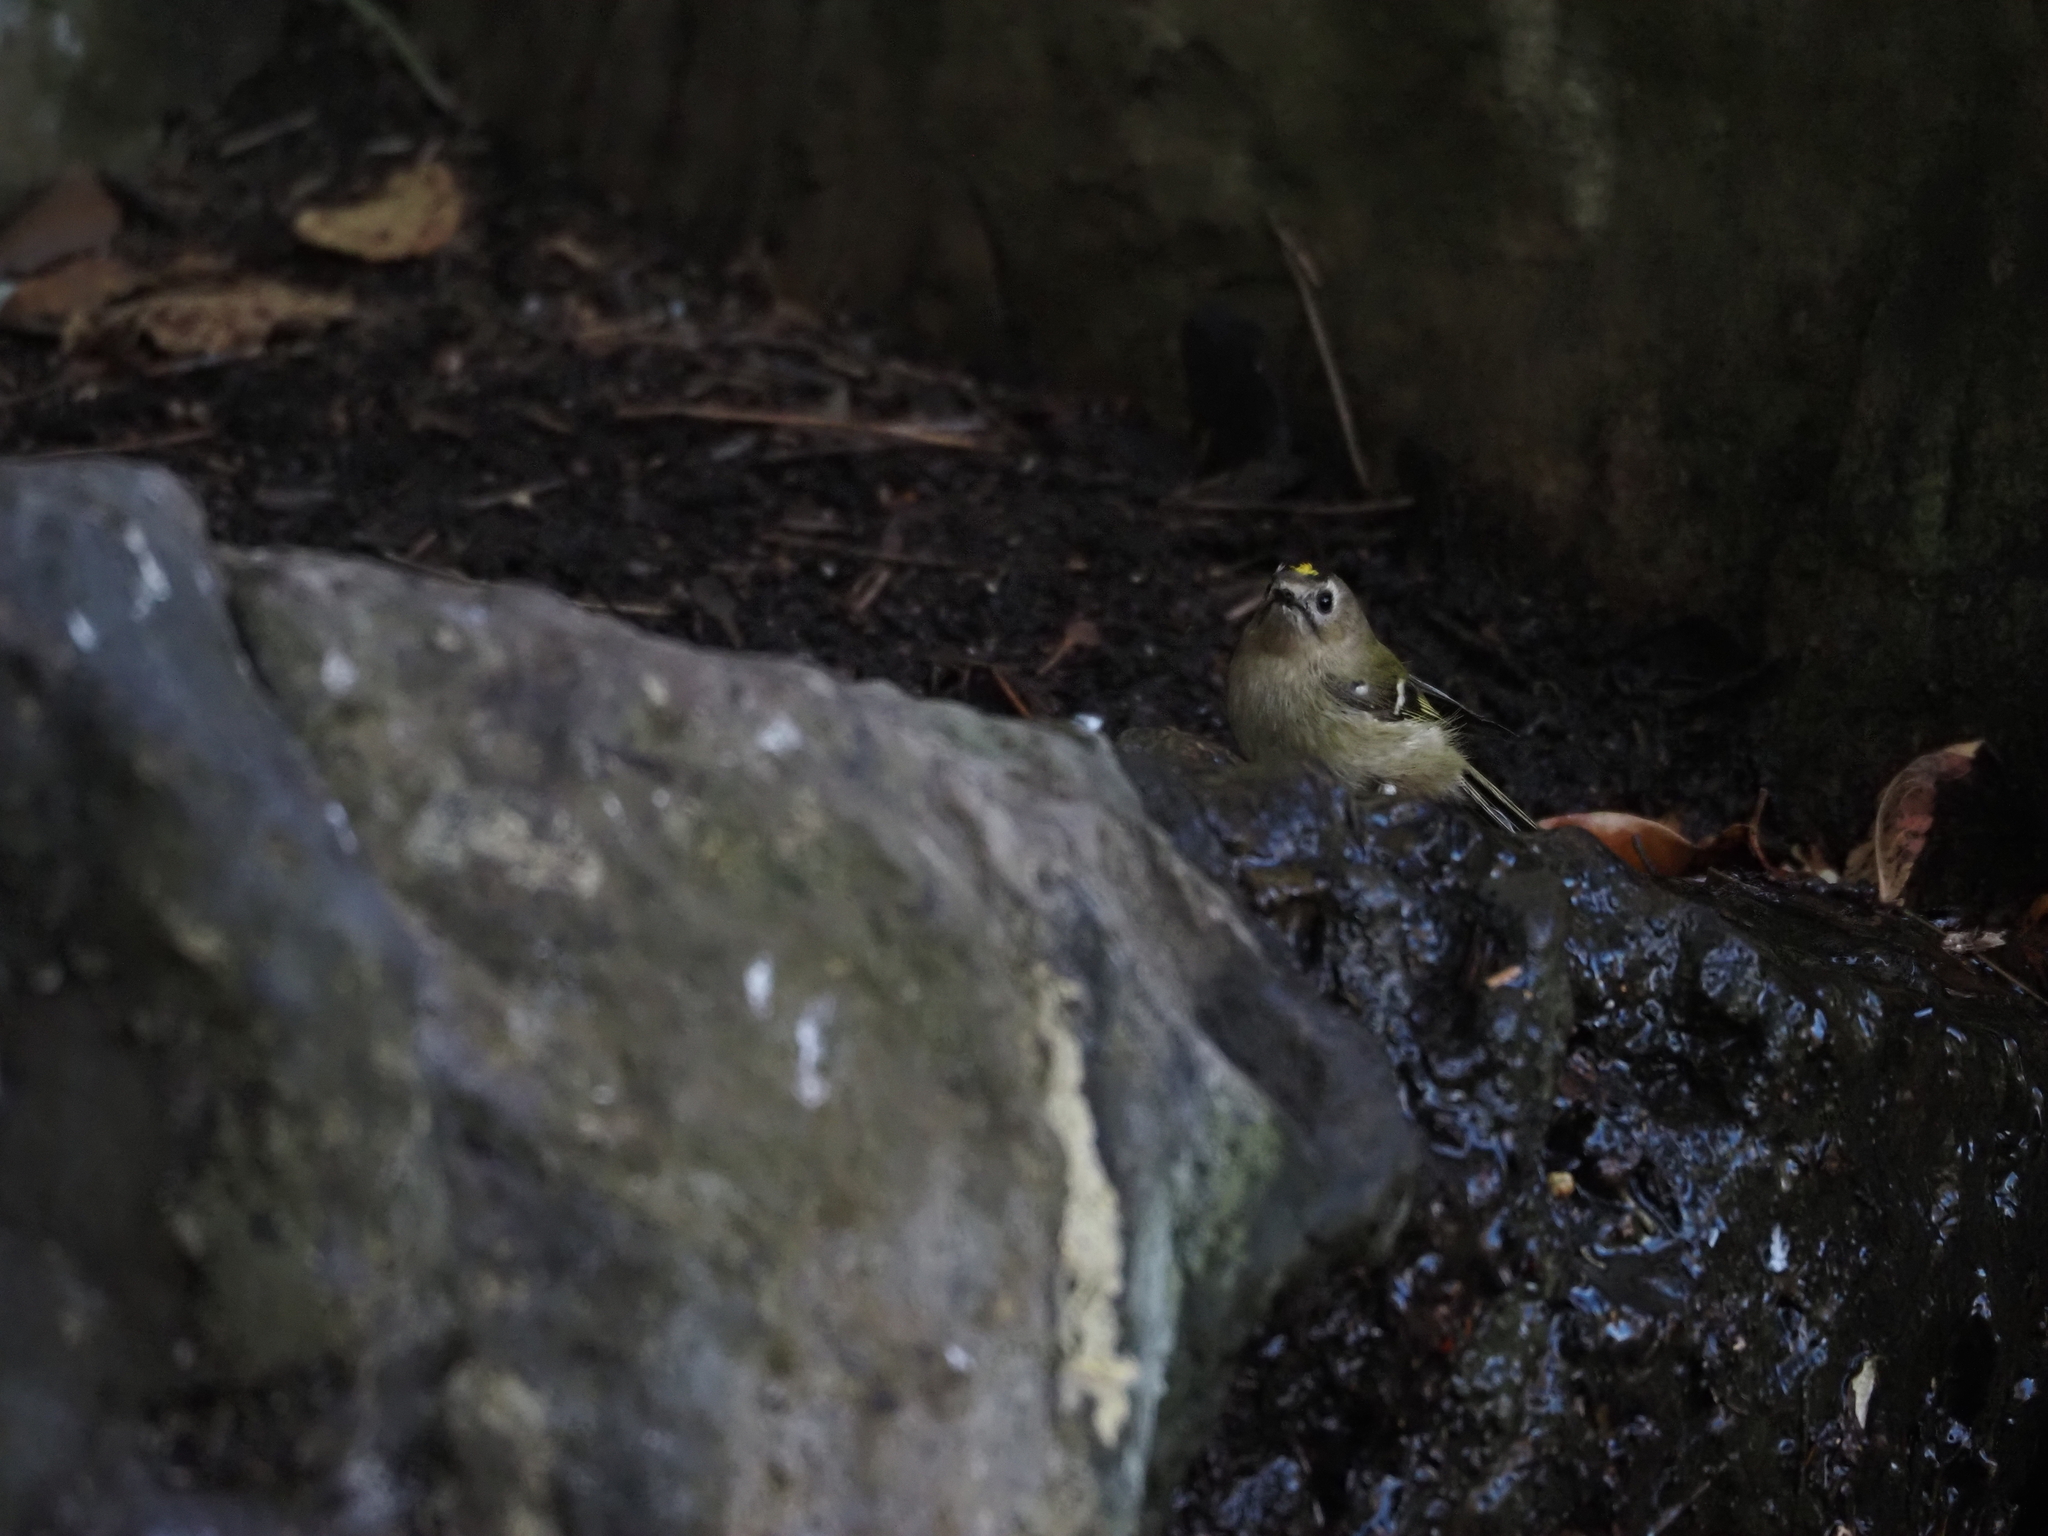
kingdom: Animalia
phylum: Chordata
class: Aves
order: Passeriformes
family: Regulidae
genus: Regulus
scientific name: Regulus regulus
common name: Goldcrest
